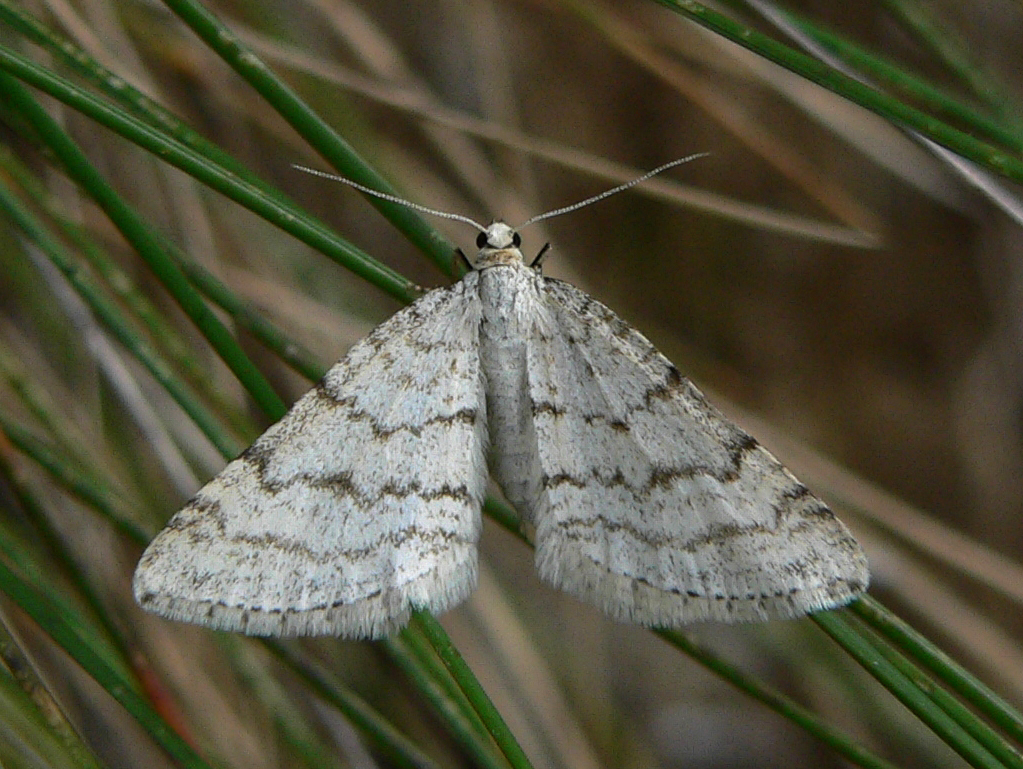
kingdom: Animalia
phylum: Arthropoda
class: Insecta
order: Lepidoptera
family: Geometridae
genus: Perizoma
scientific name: Perizoma verberata
